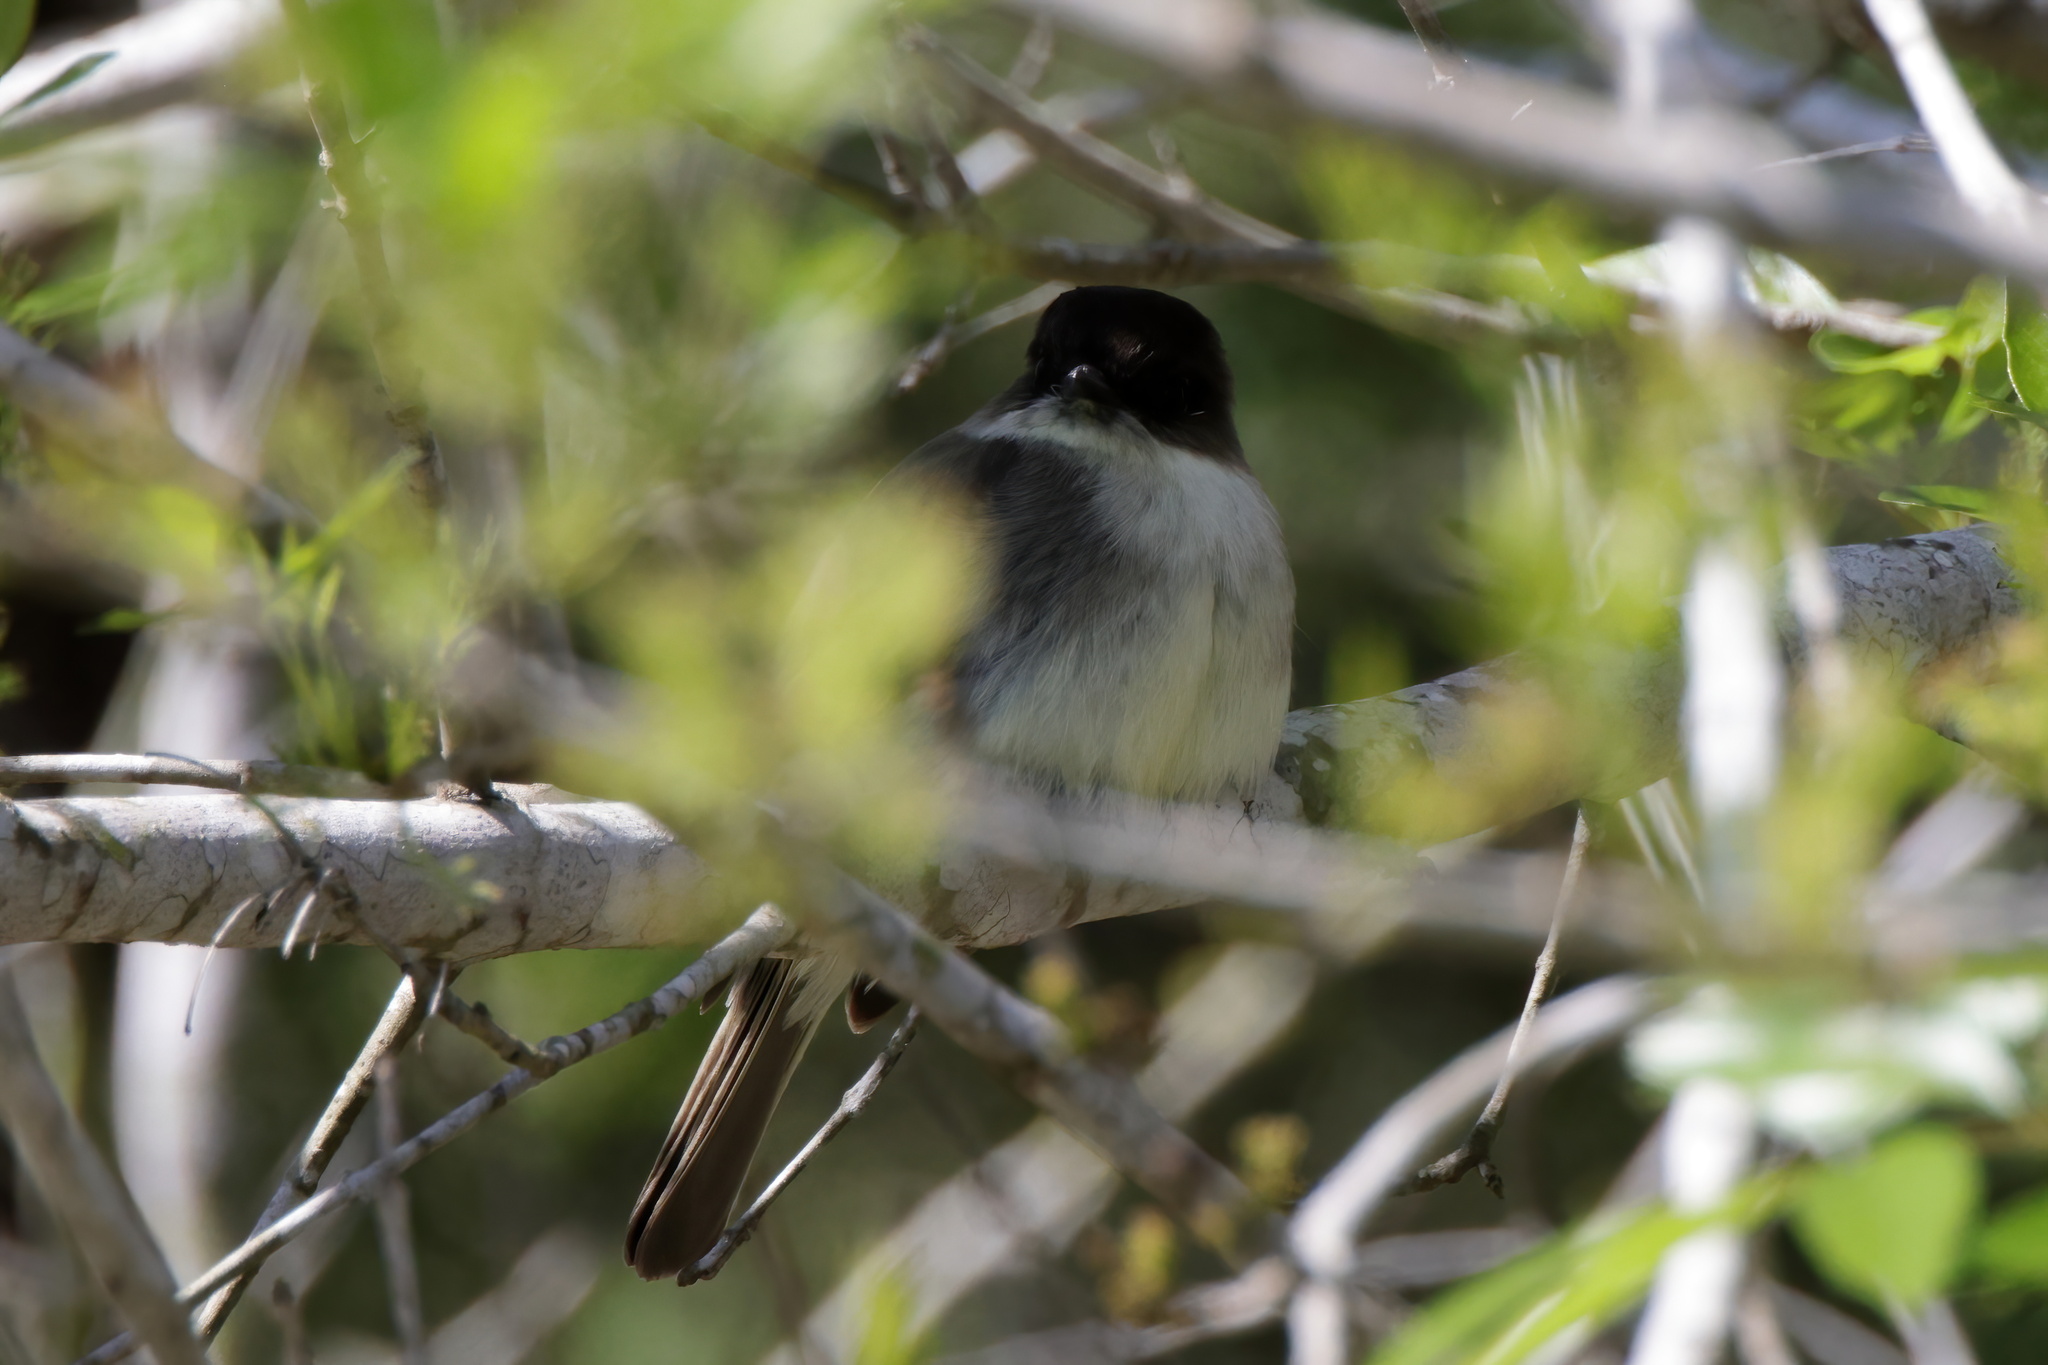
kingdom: Animalia
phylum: Chordata
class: Aves
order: Passeriformes
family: Tyrannidae
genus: Sayornis
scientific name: Sayornis phoebe
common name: Eastern phoebe
